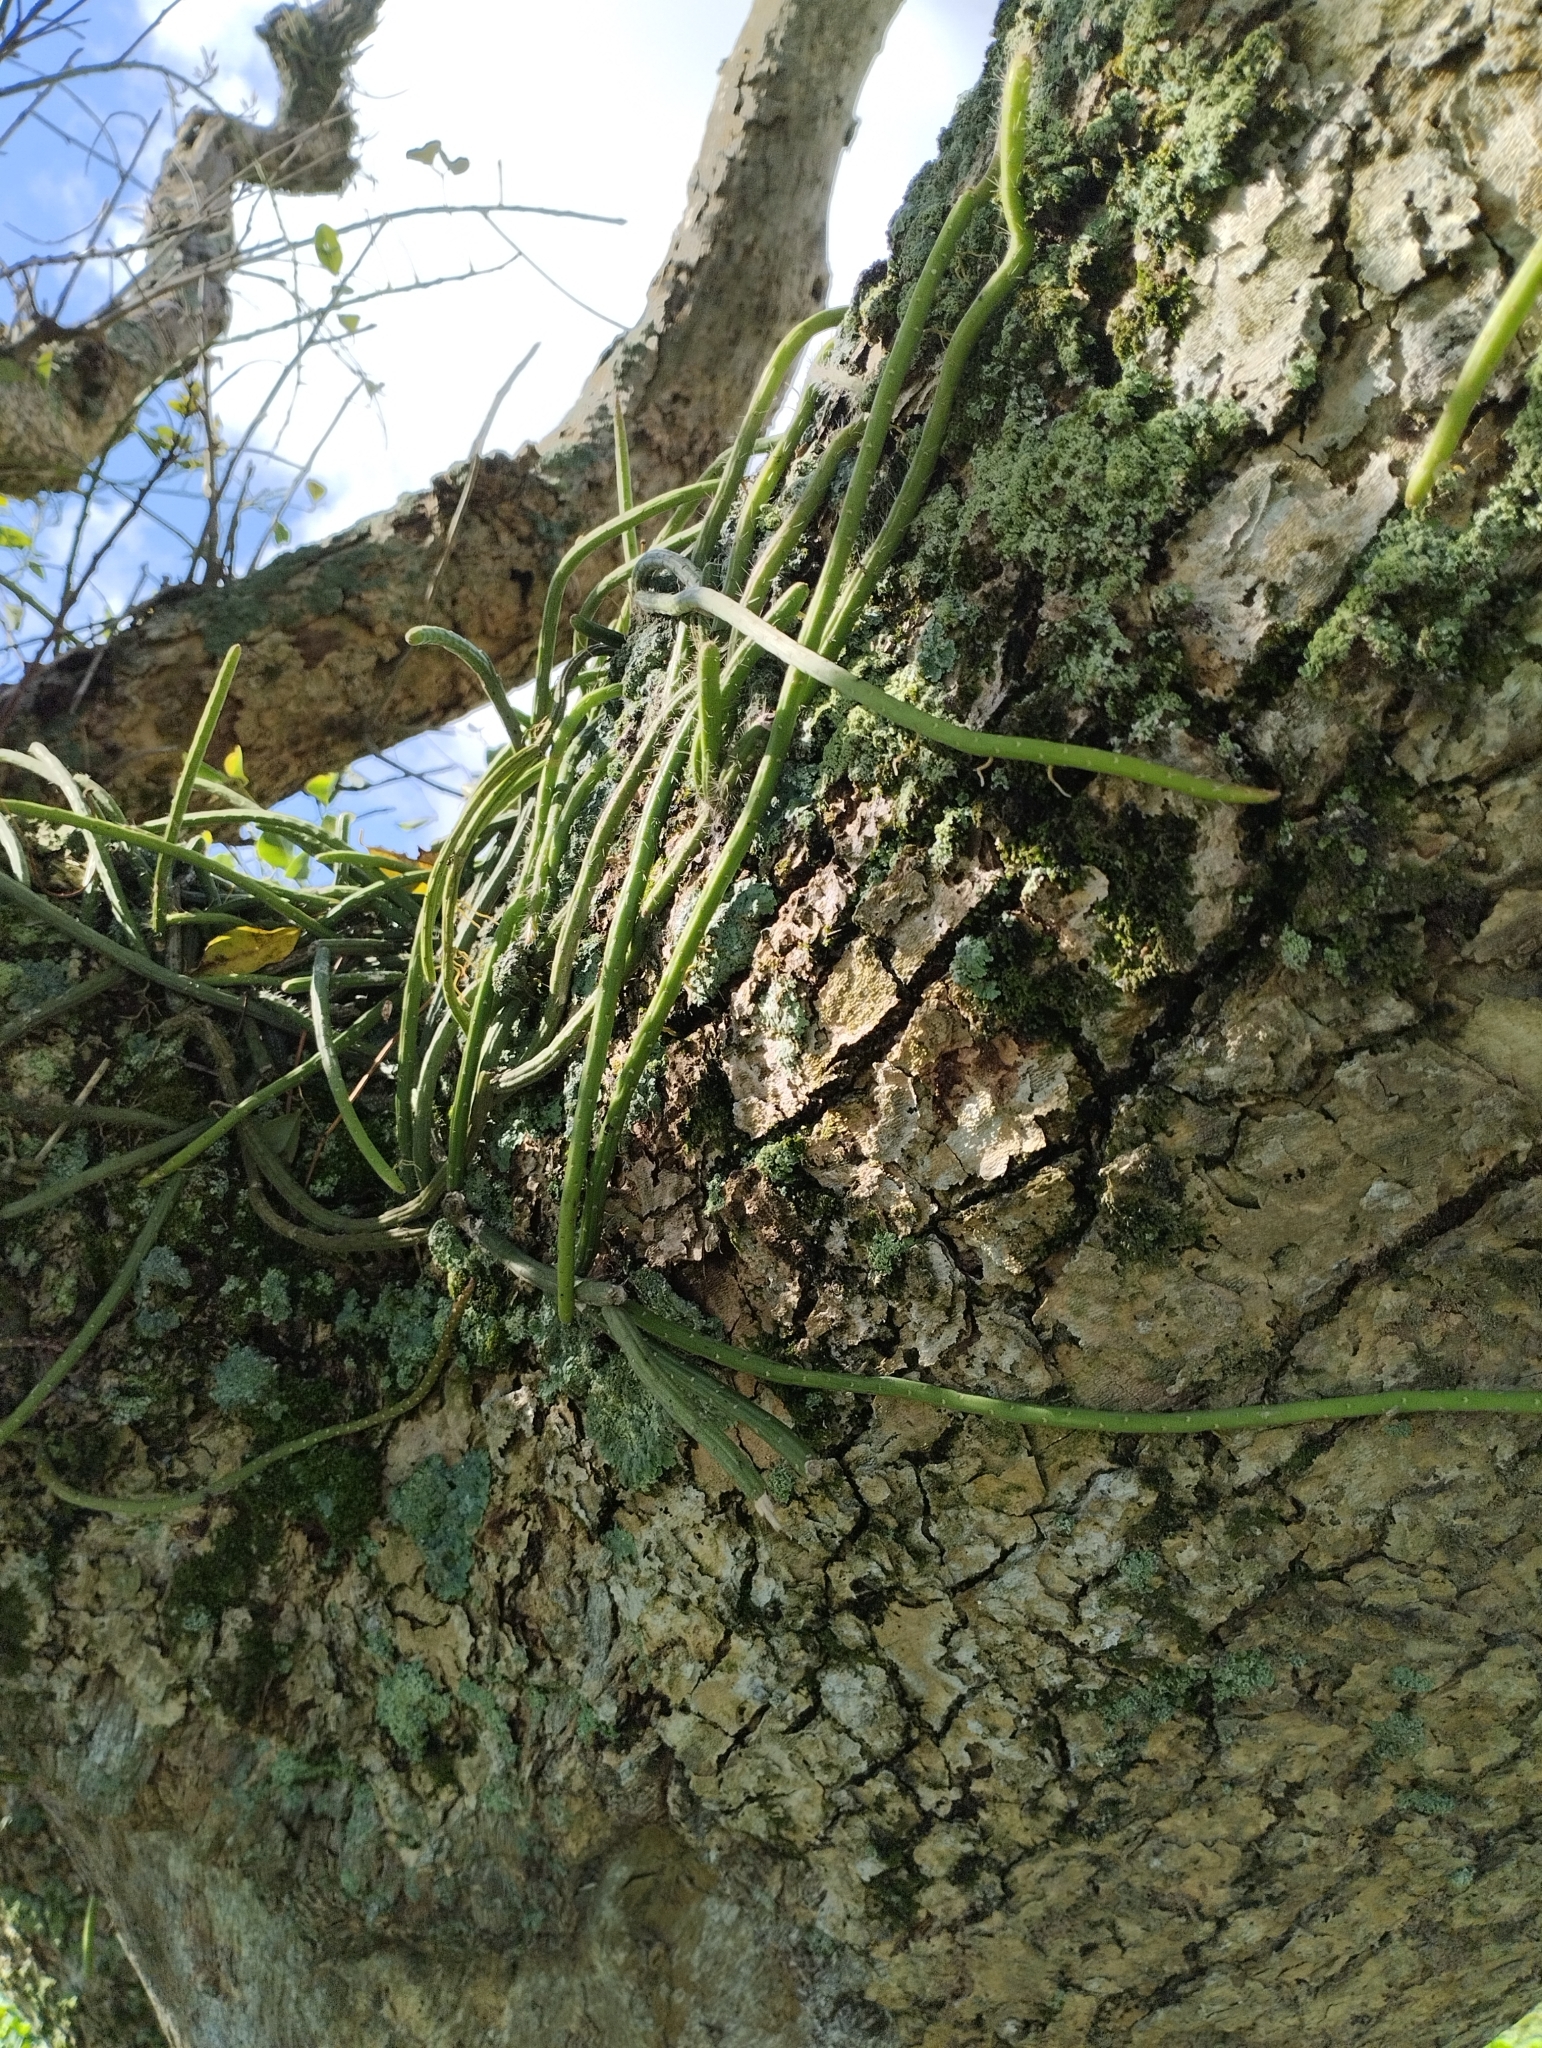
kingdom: Plantae
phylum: Tracheophyta
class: Magnoliopsida
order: Caryophyllales
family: Cactaceae
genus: Lepismium
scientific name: Lepismium lumbricoides
